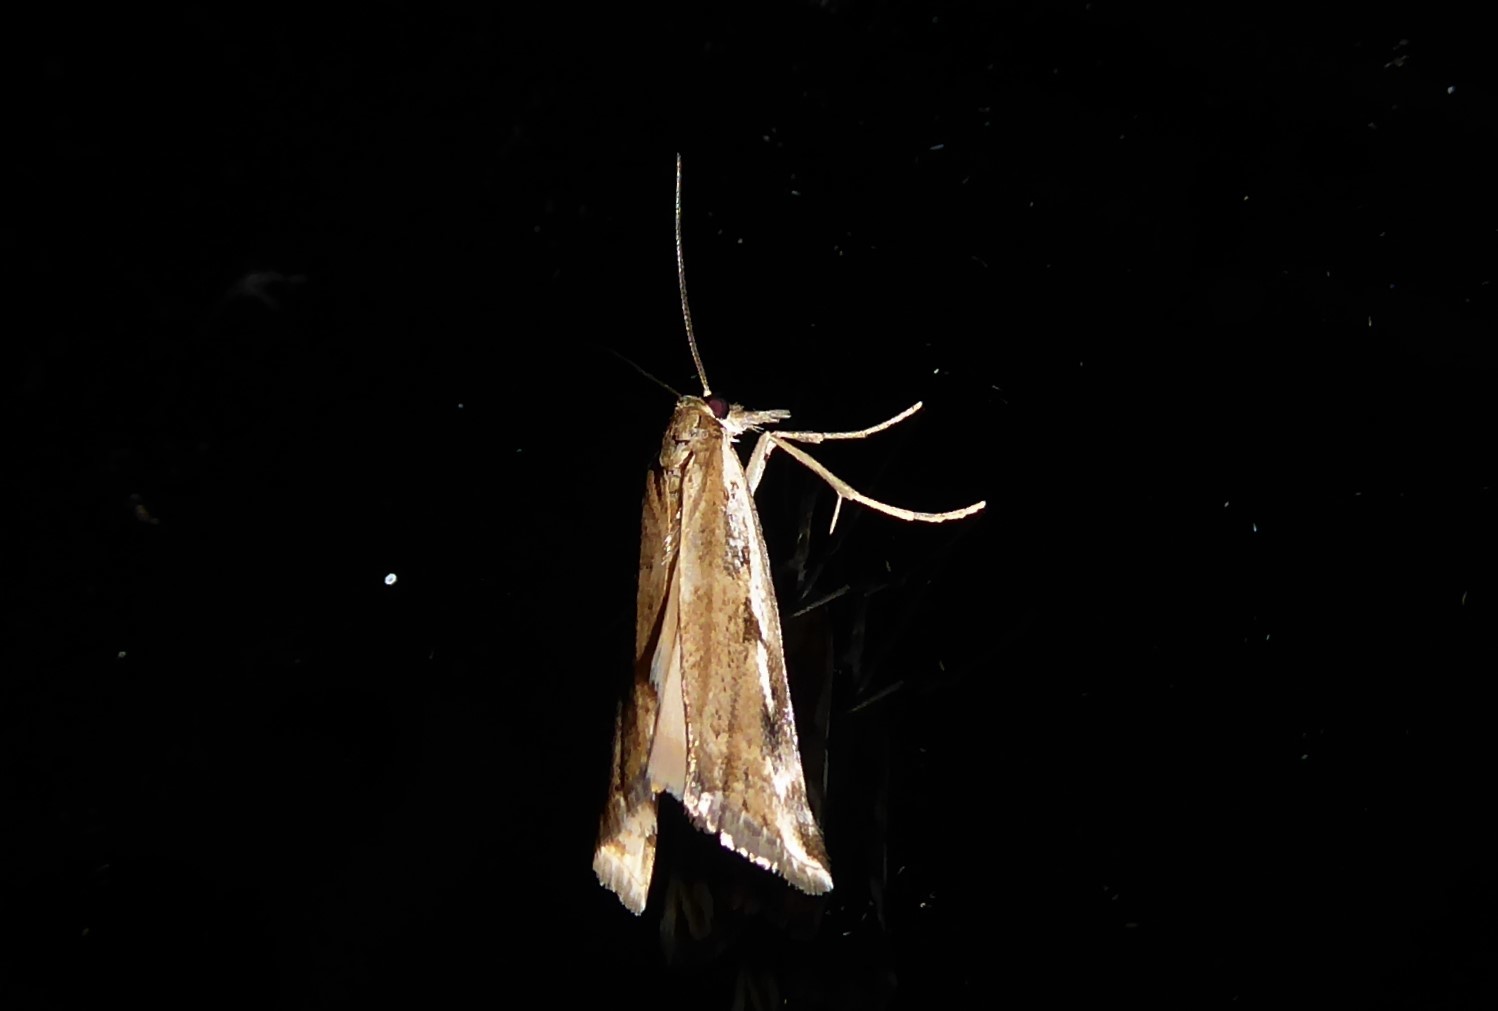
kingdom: Animalia
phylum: Arthropoda
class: Insecta
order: Lepidoptera
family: Crambidae
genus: Orocrambus
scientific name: Orocrambus vulgaris
